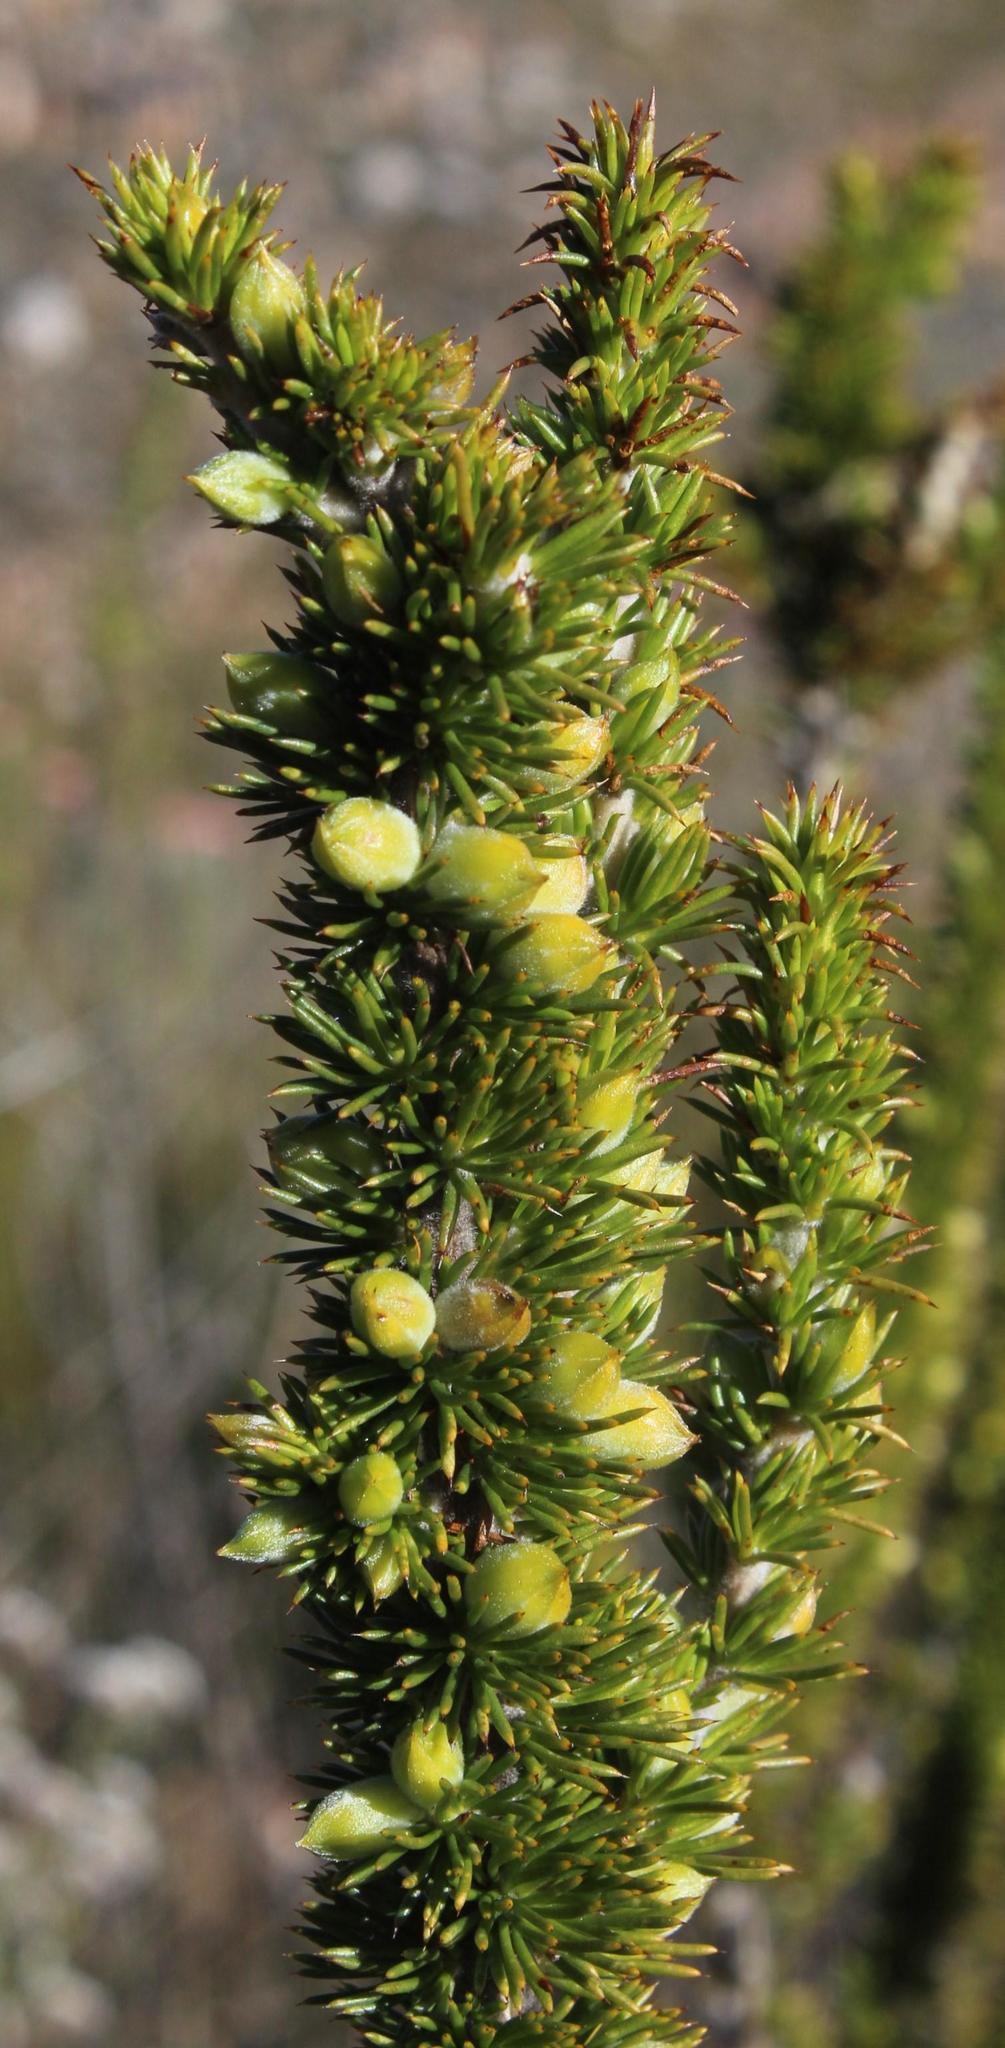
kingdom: Plantae
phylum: Tracheophyta
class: Magnoliopsida
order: Fabales
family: Fabaceae
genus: Aspalathus
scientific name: Aspalathus sceptrumaureum
